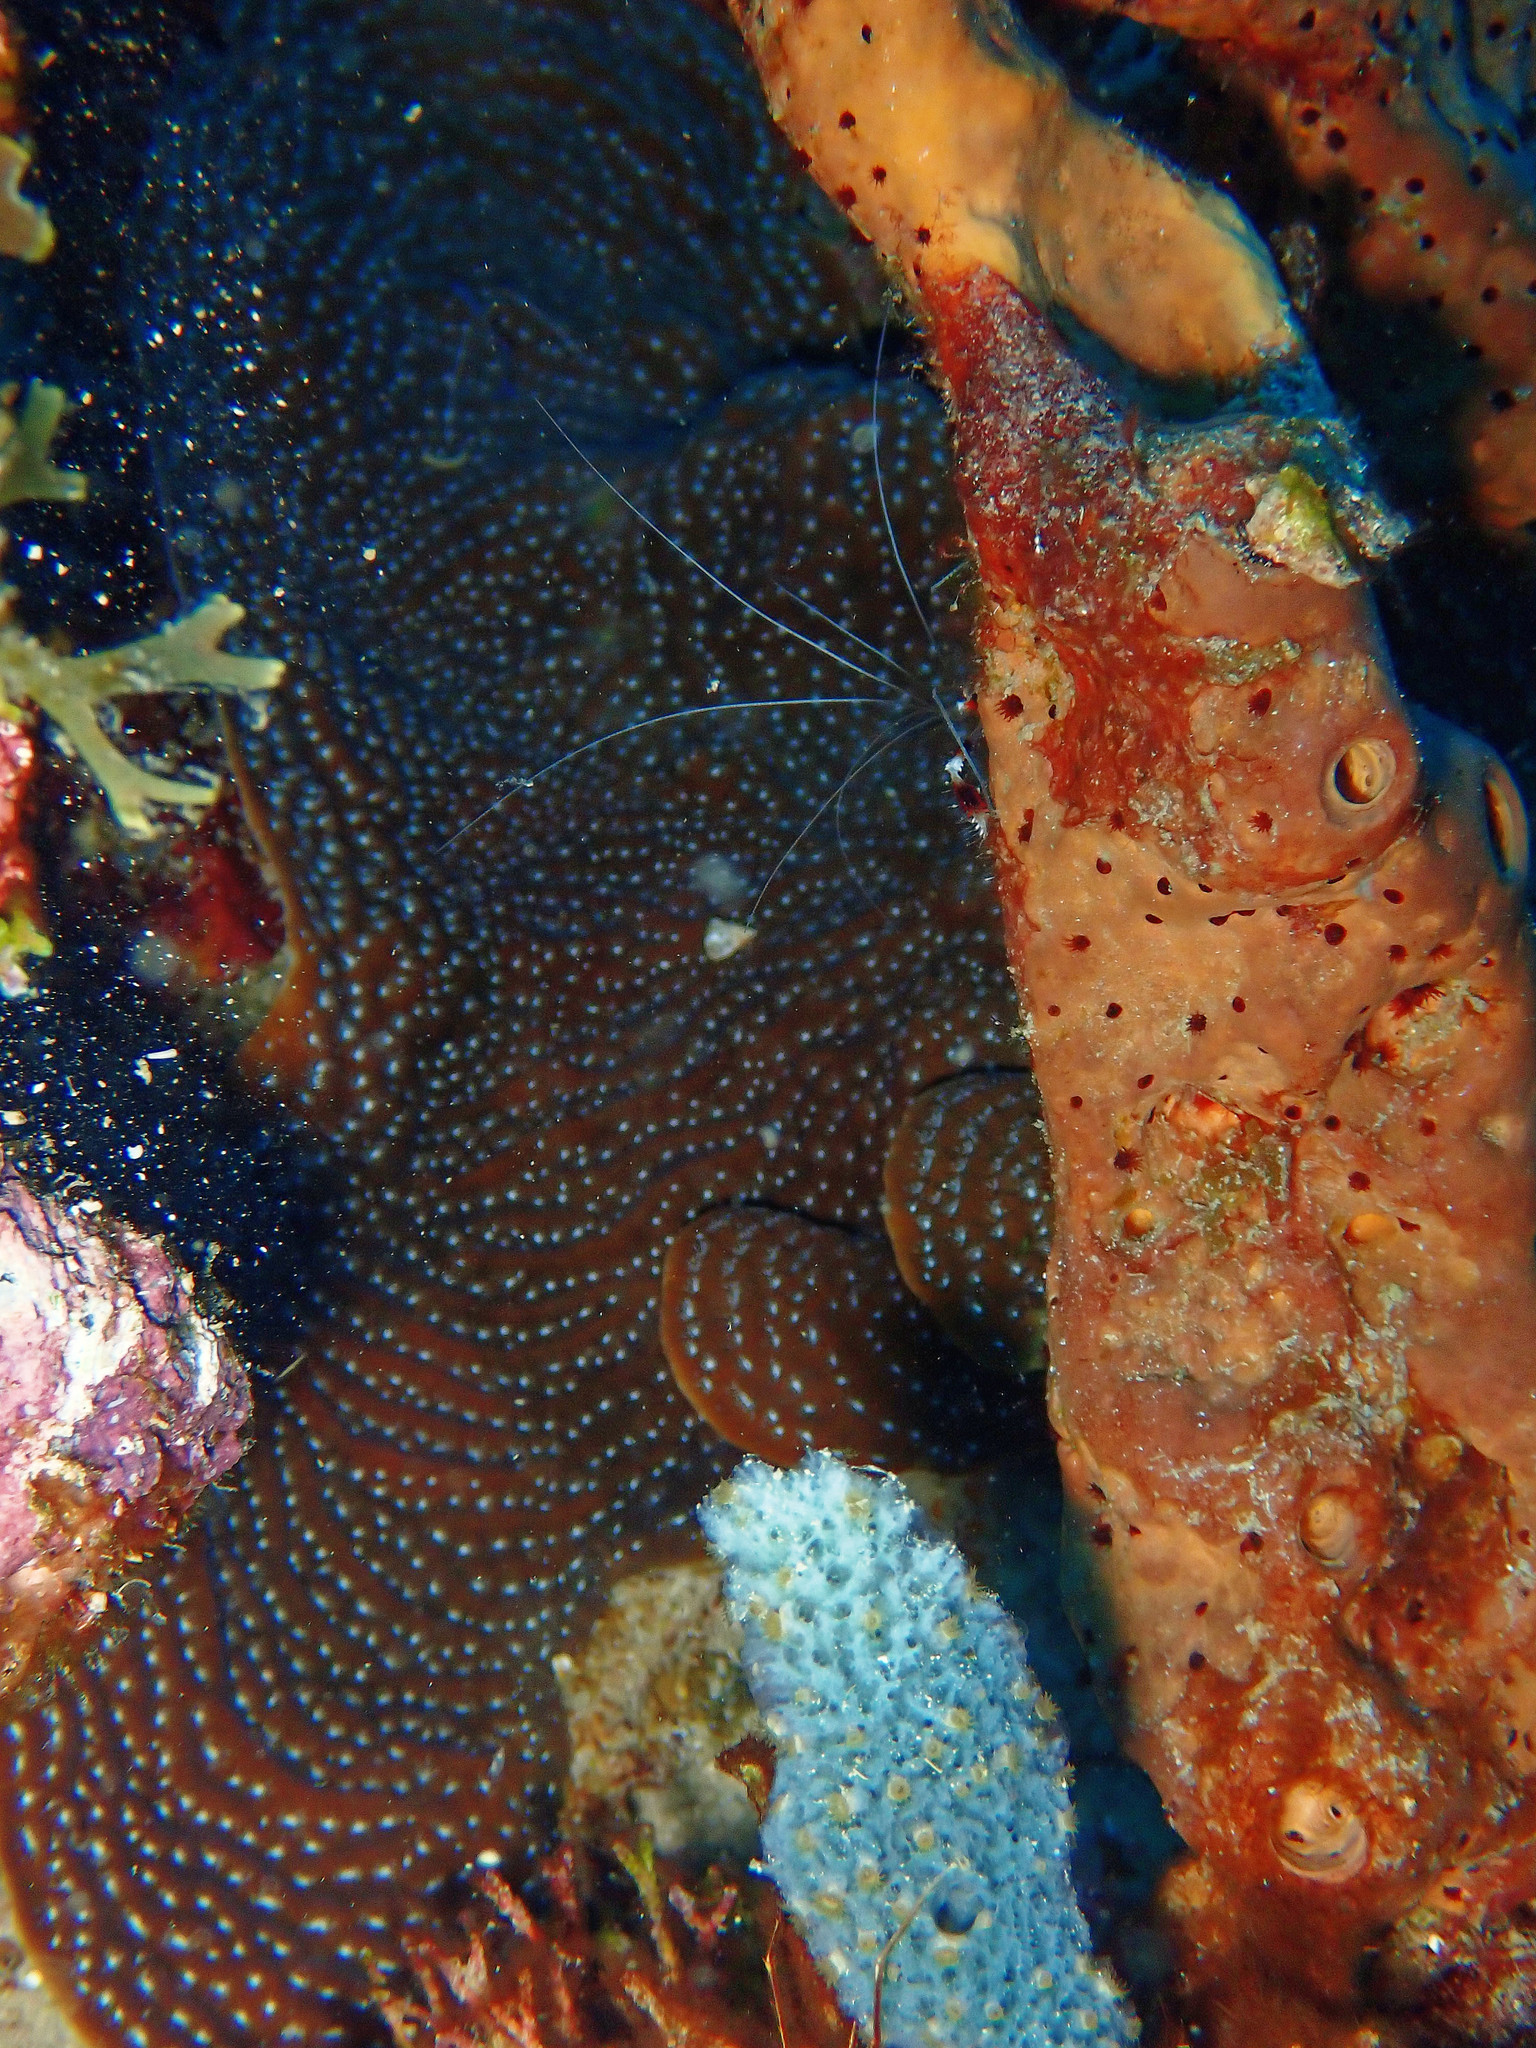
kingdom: Animalia
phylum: Cnidaria
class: Anthozoa
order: Scleractinia
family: Agariciidae
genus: Agaricia
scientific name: Agaricia lamarcki
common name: Lamarck's sheet coral
